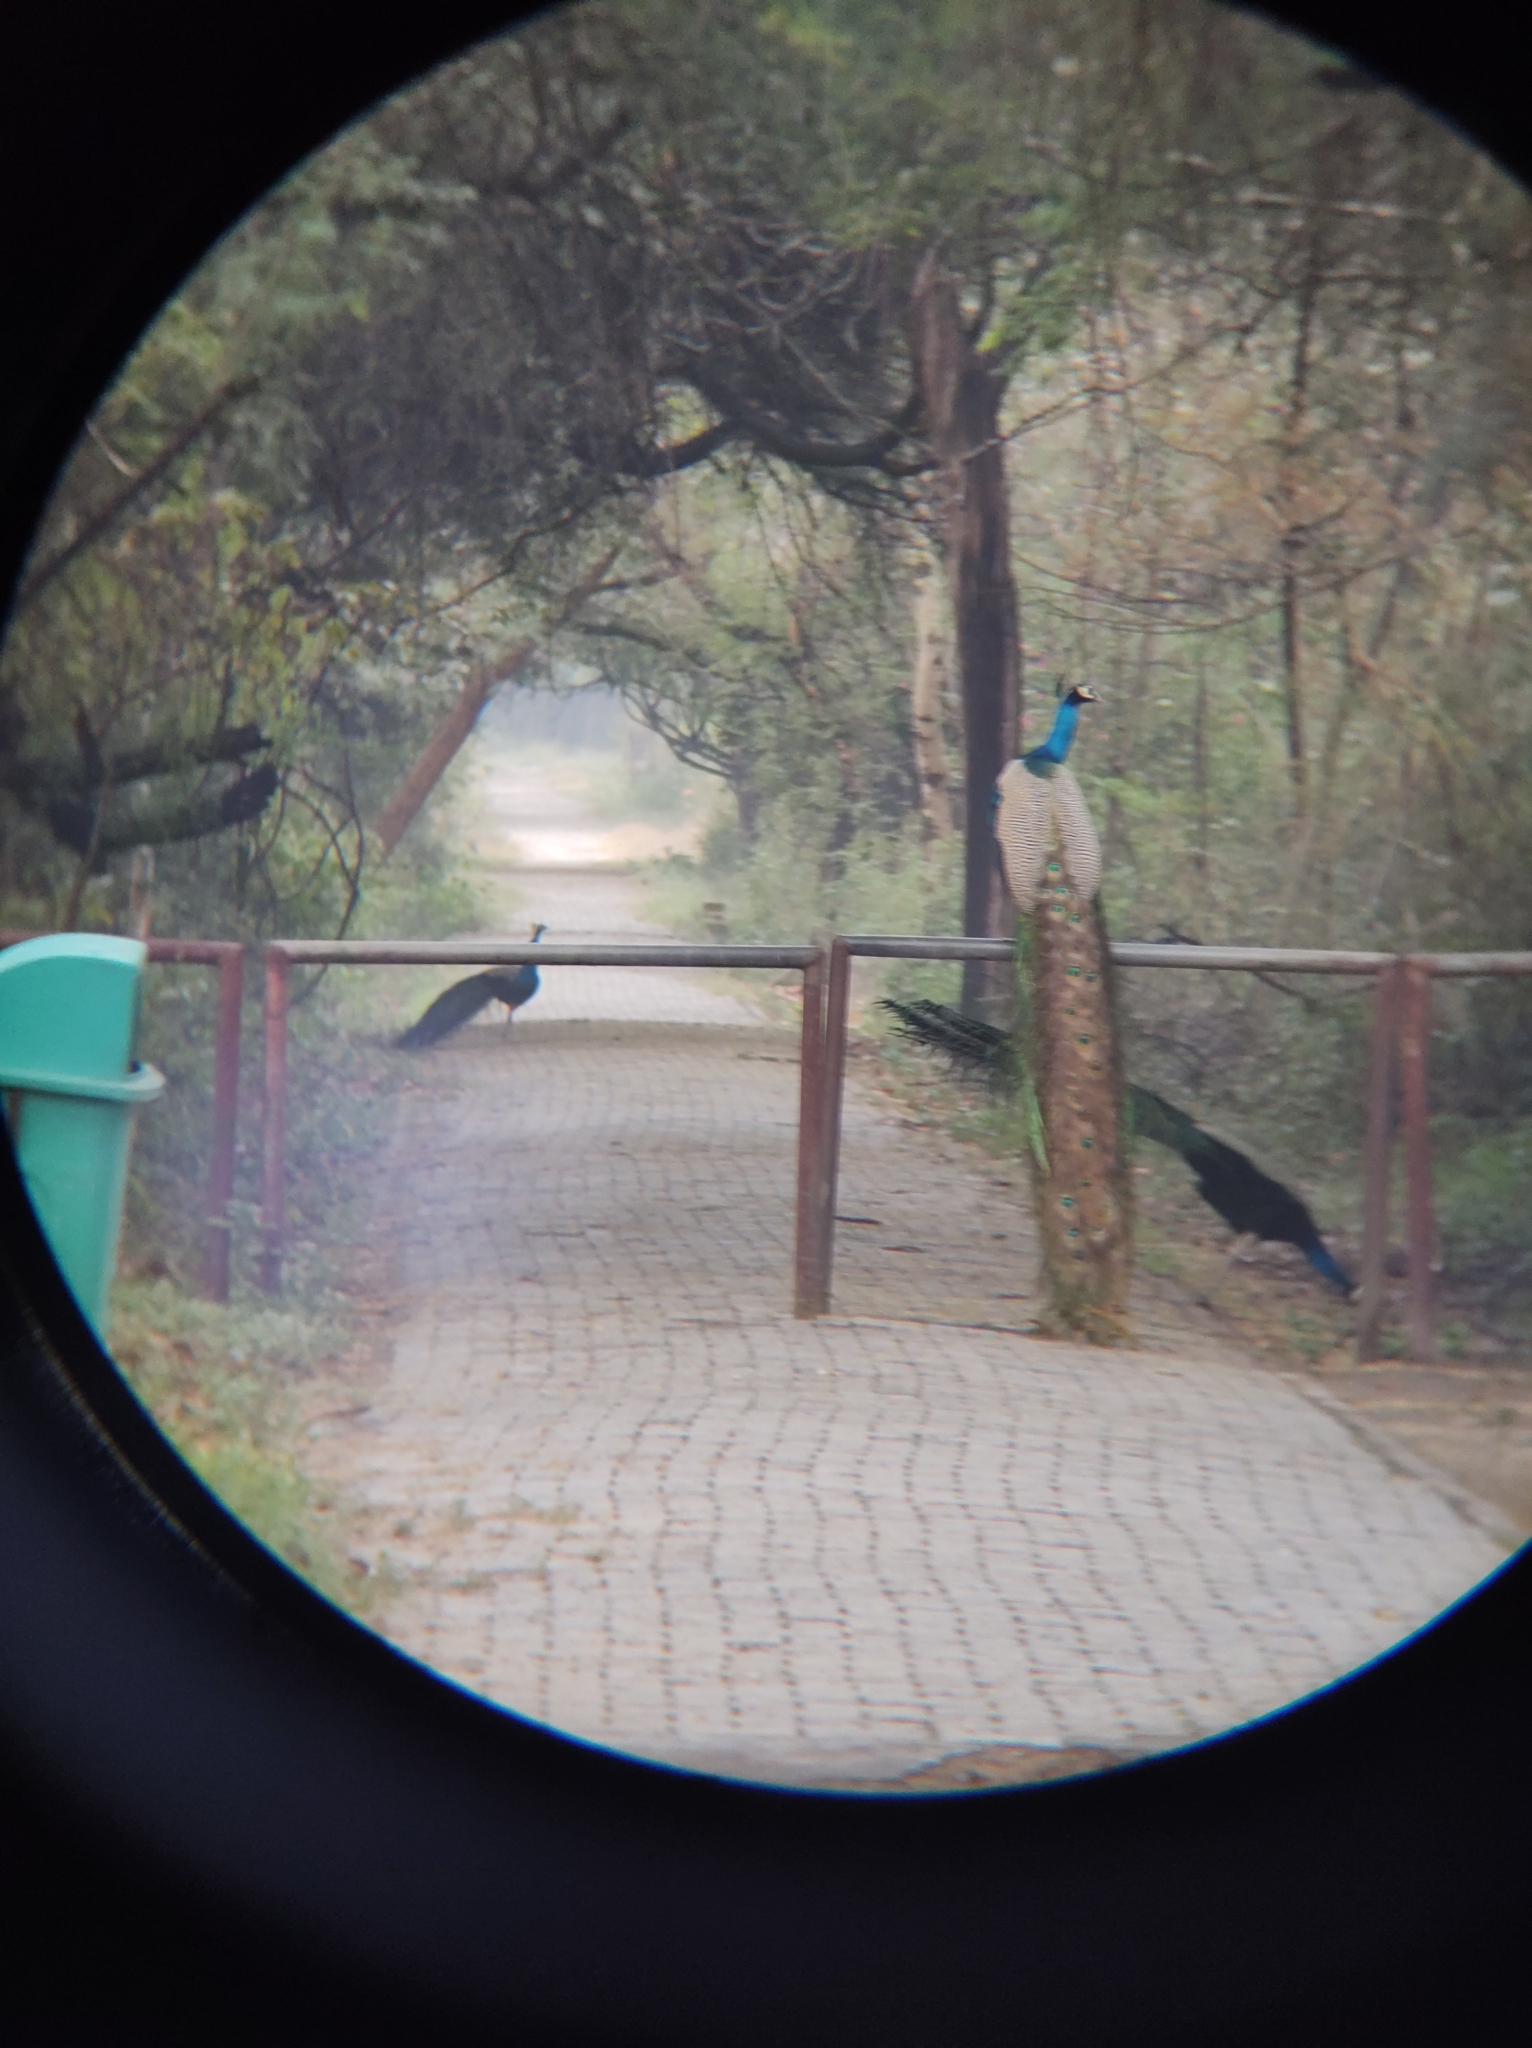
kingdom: Animalia
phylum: Chordata
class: Aves
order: Galliformes
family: Phasianidae
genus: Pavo
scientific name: Pavo cristatus
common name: Indian peafowl
